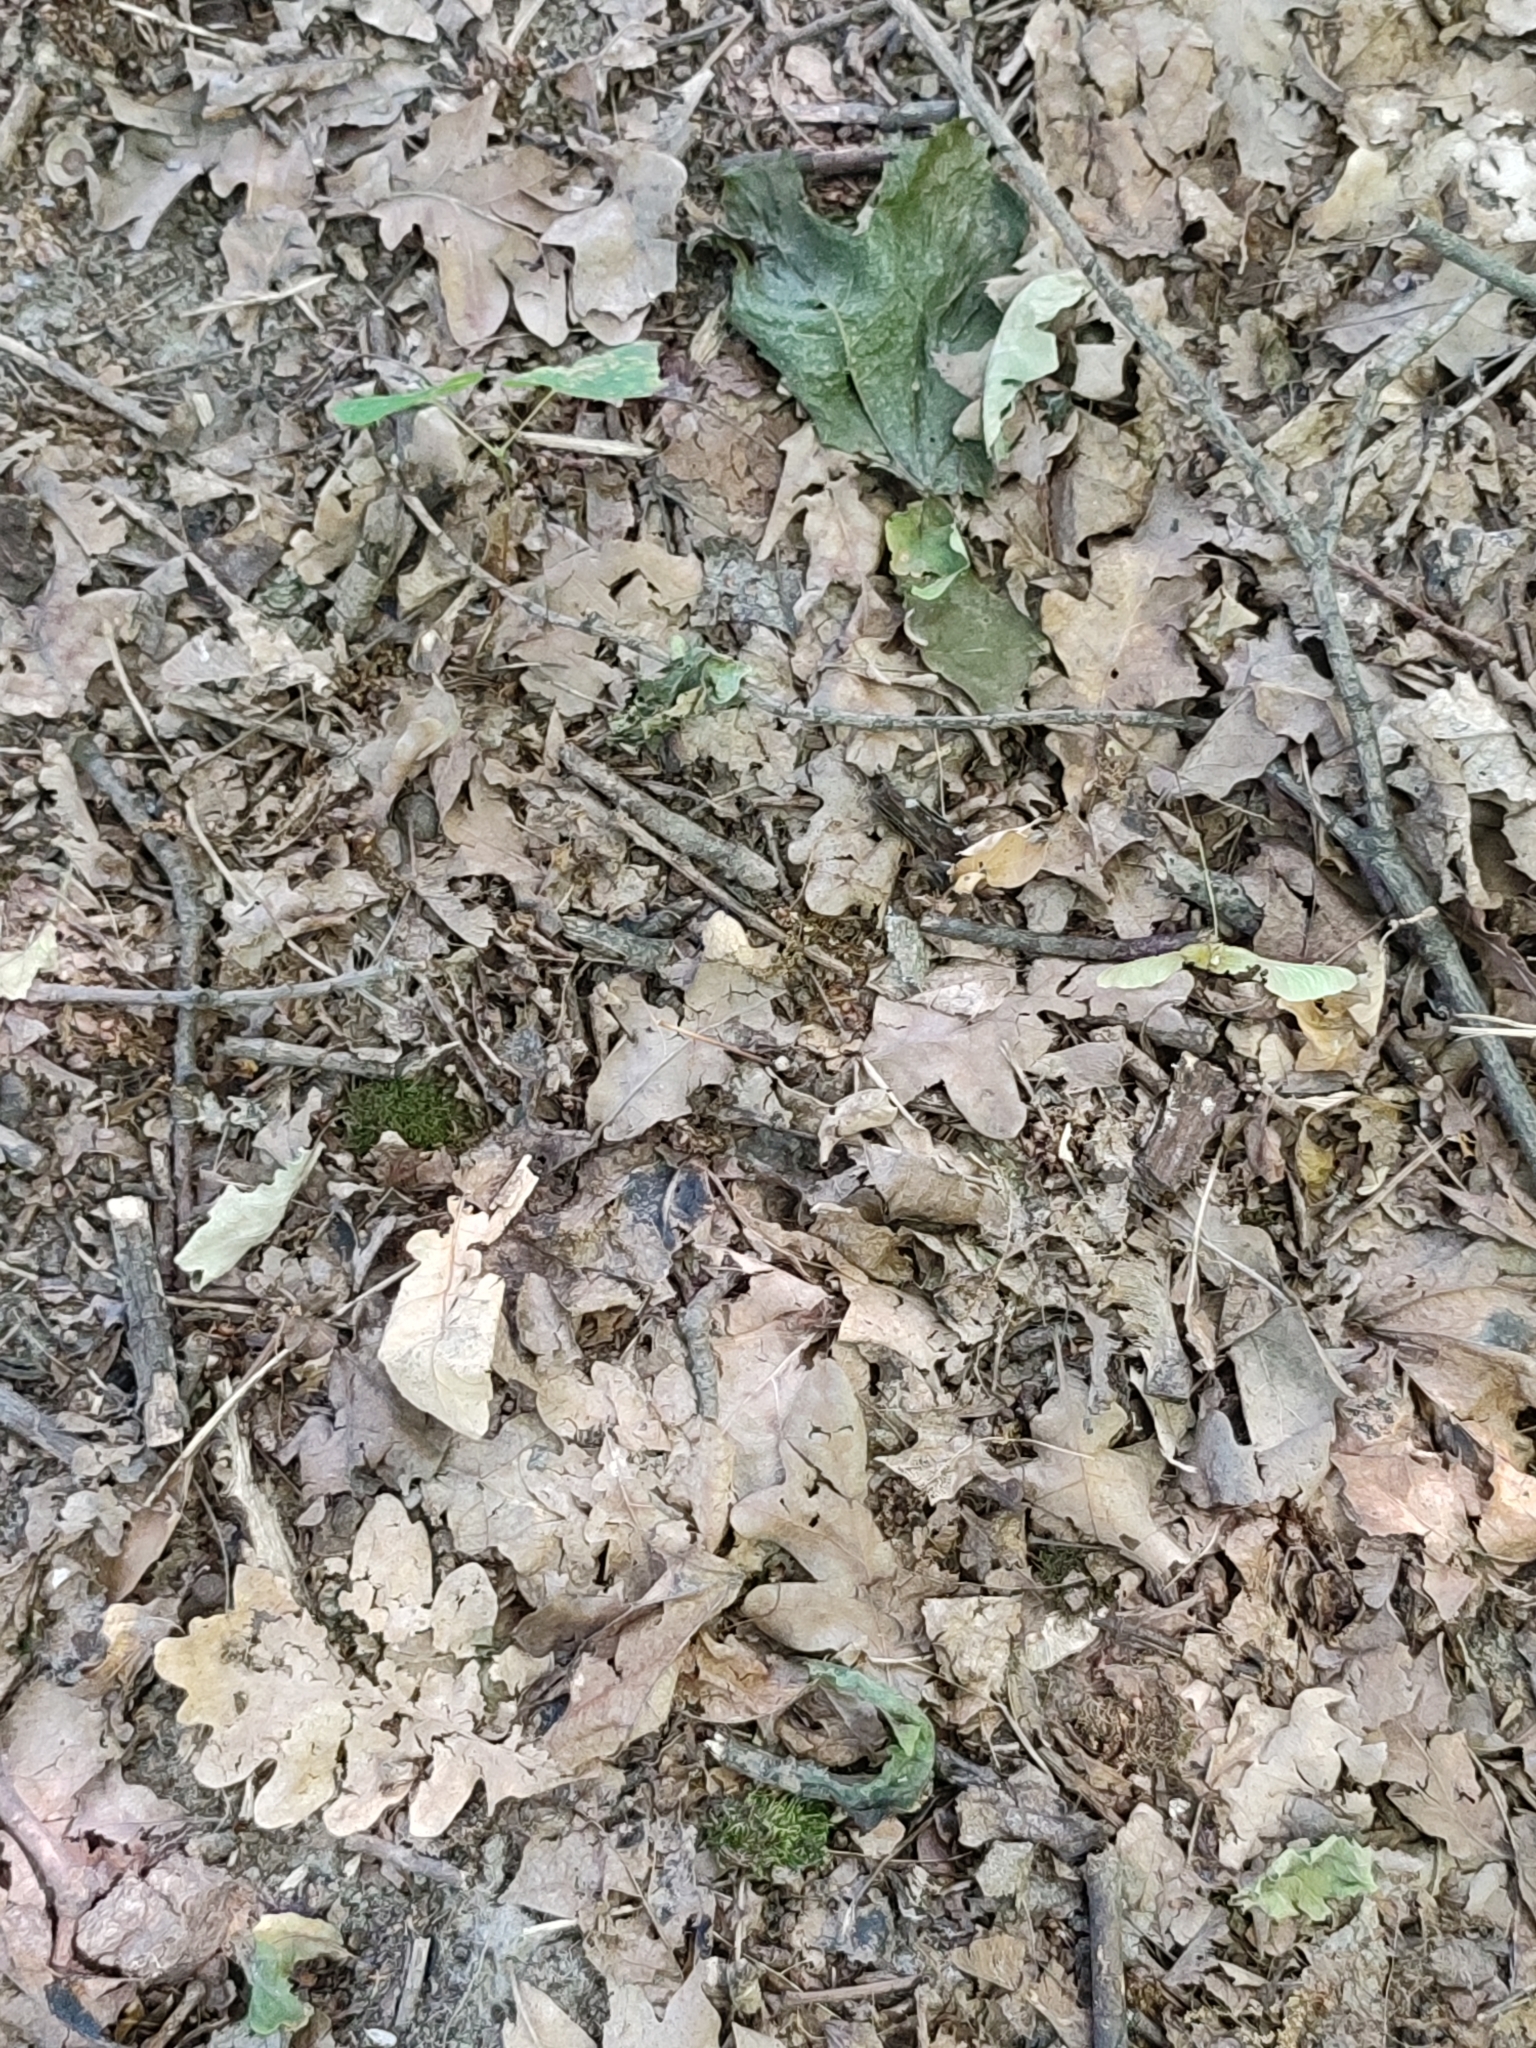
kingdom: Plantae
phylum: Tracheophyta
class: Magnoliopsida
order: Fagales
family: Fagaceae
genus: Quercus
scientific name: Quercus robur
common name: Pedunculate oak
